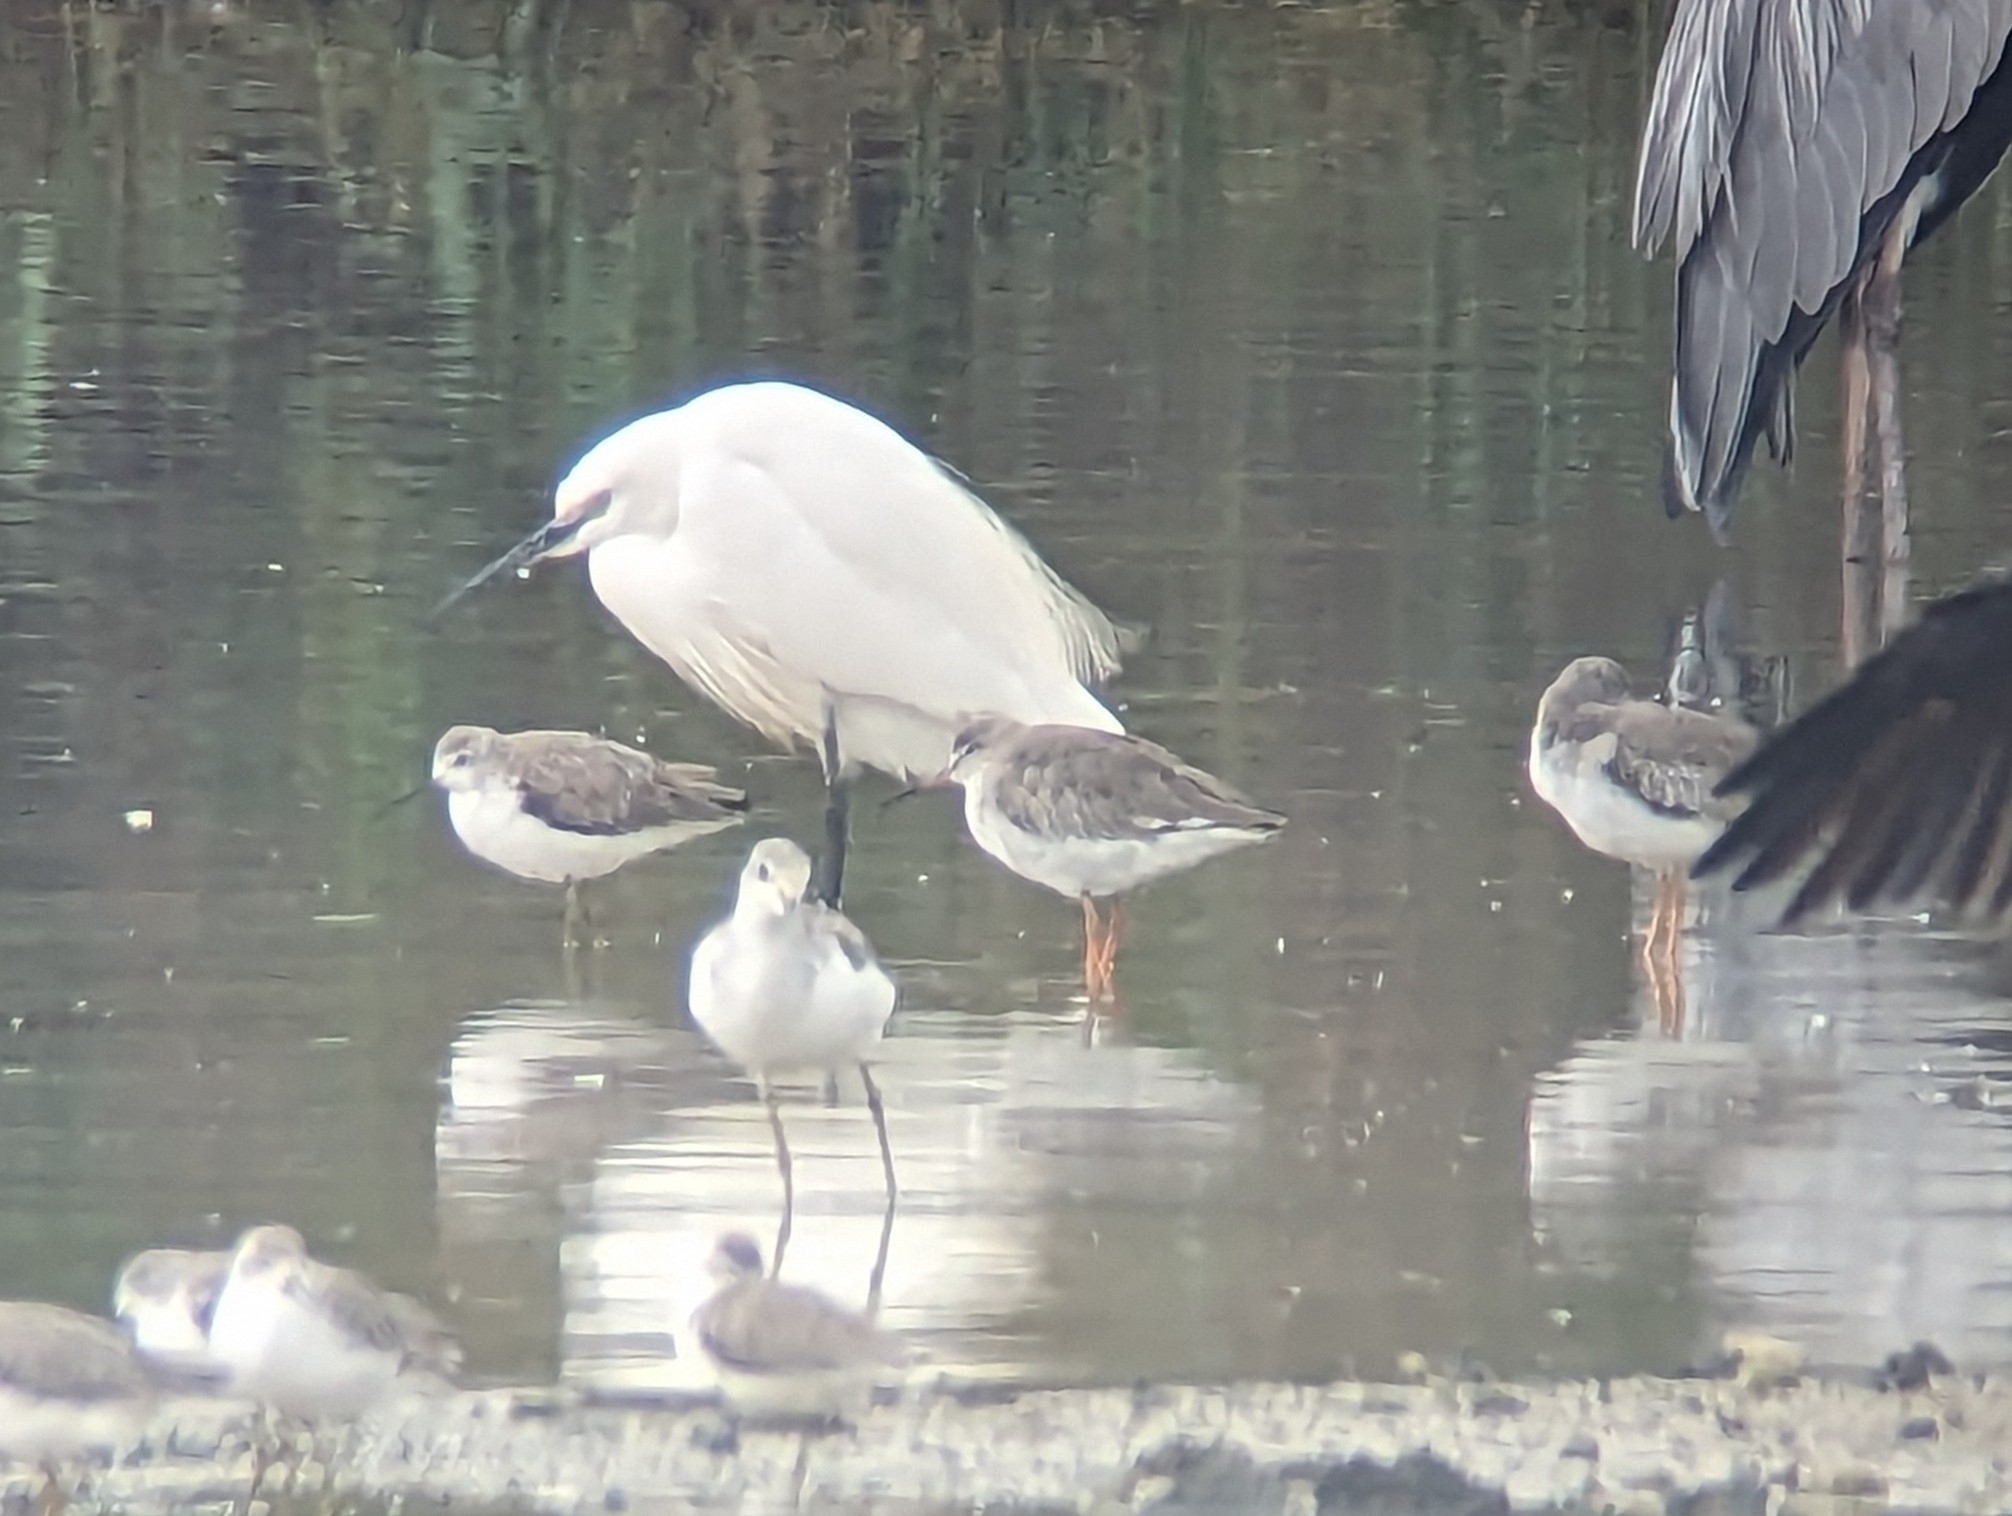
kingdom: Animalia
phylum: Chordata
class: Aves
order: Charadriiformes
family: Scolopacidae
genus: Tringa
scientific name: Tringa totanus
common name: Common redshank
